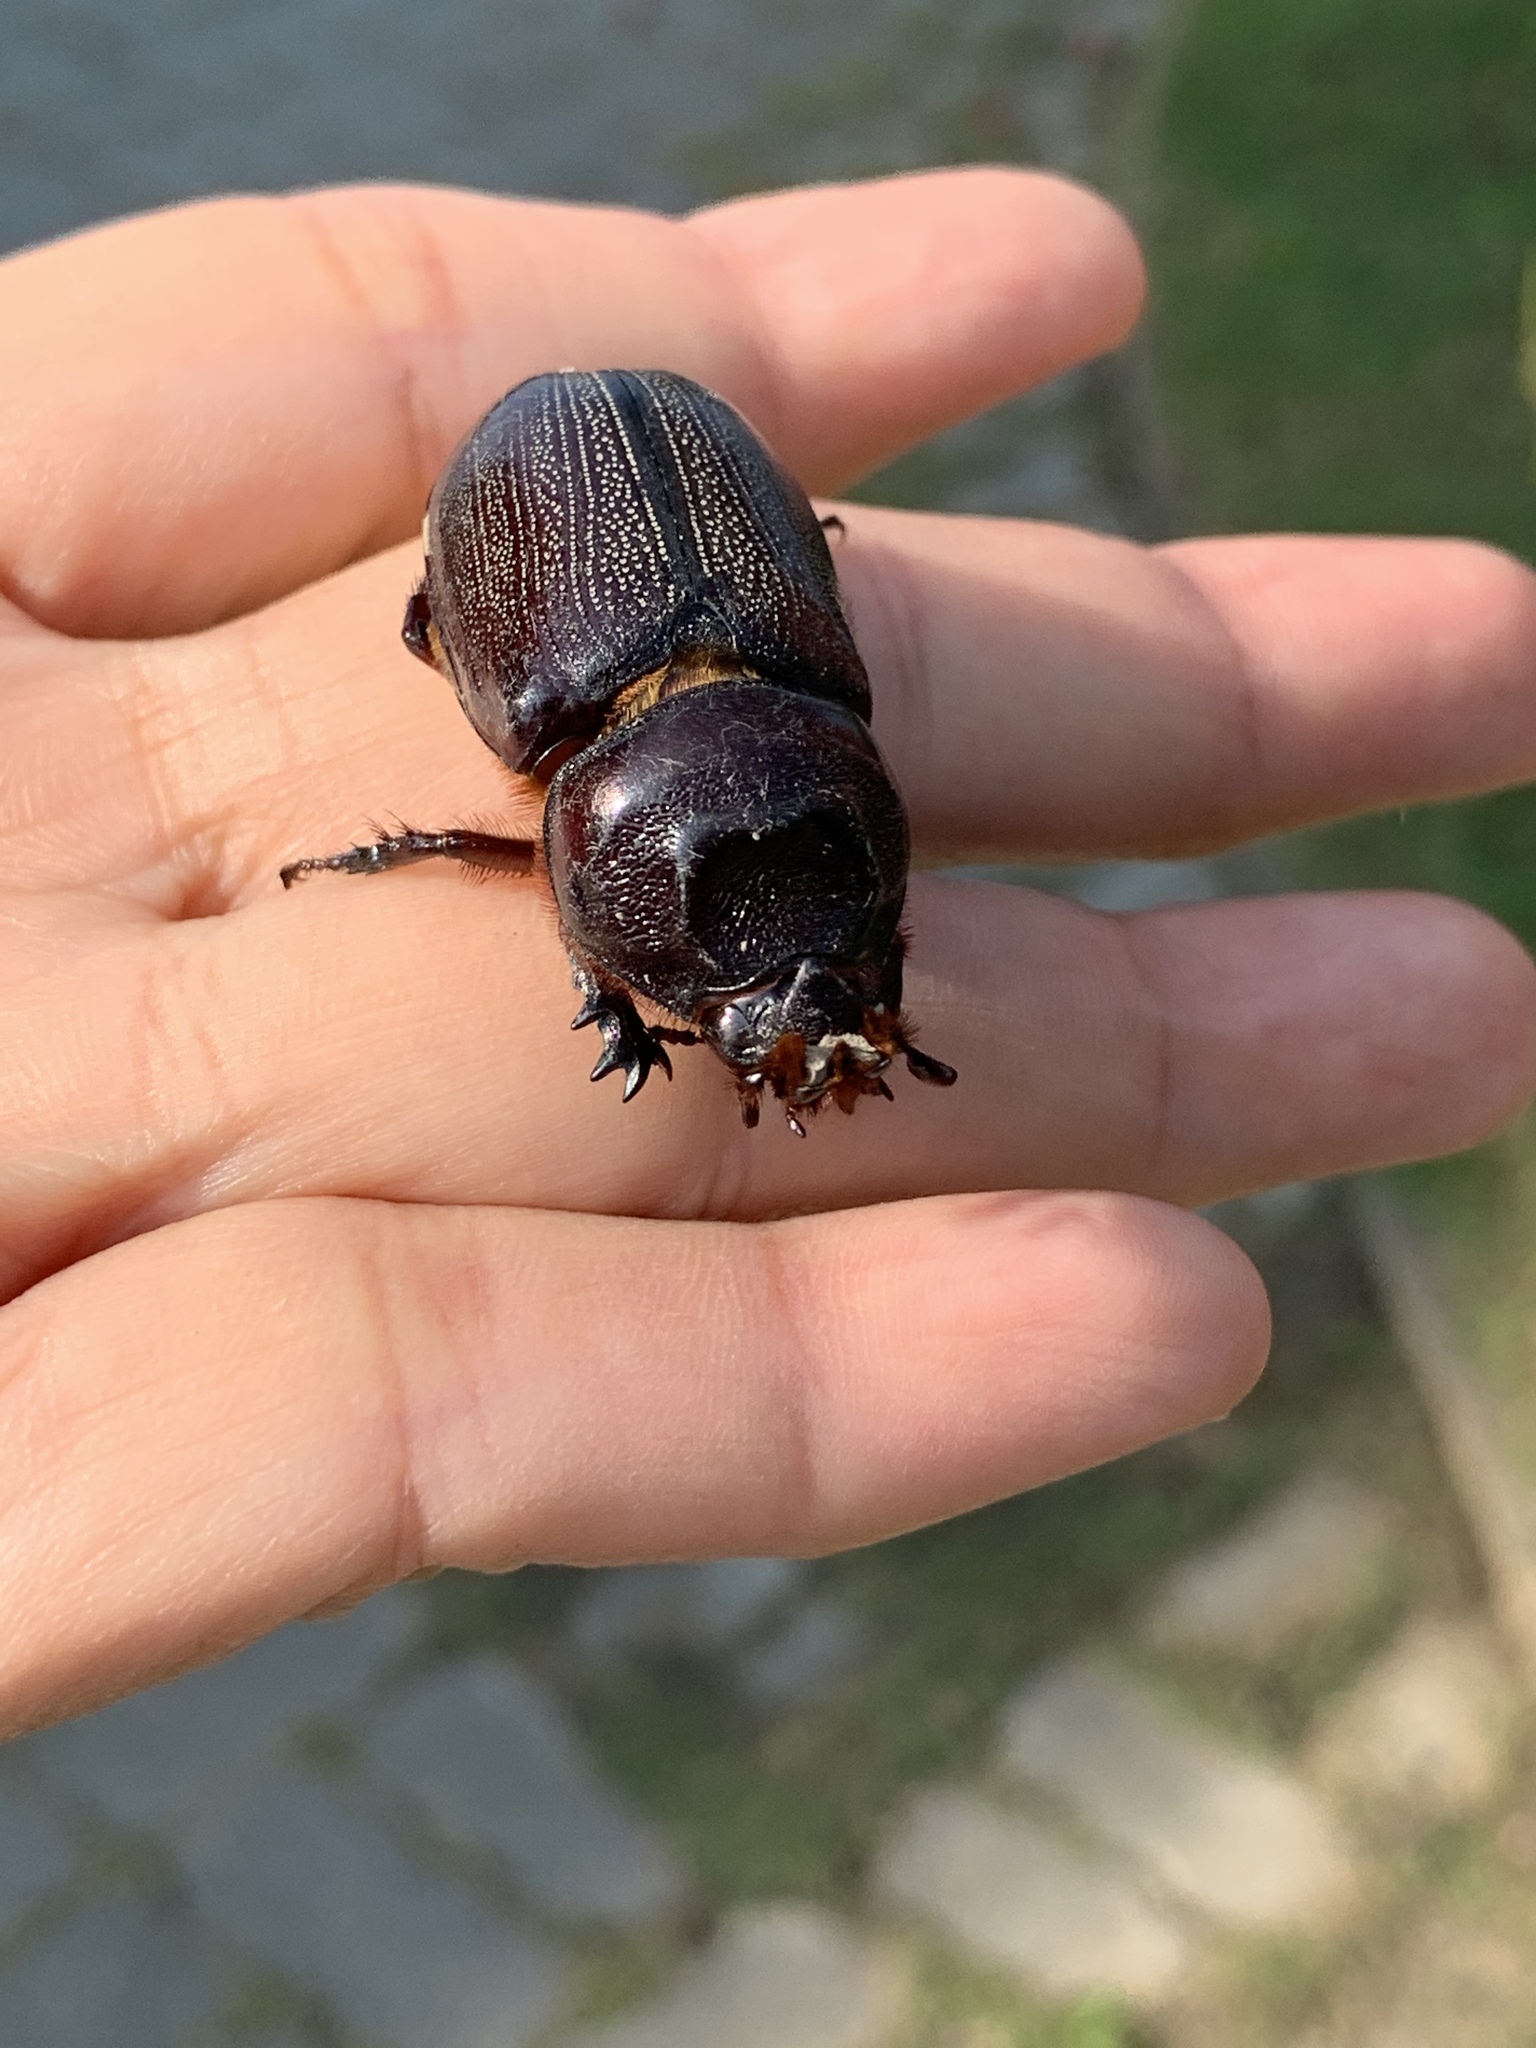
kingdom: Animalia
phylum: Arthropoda
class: Insecta
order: Coleoptera
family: Scarabaeidae
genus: Oryctes
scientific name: Oryctes rhinoceros
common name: Coconut rhinoceros beetle
